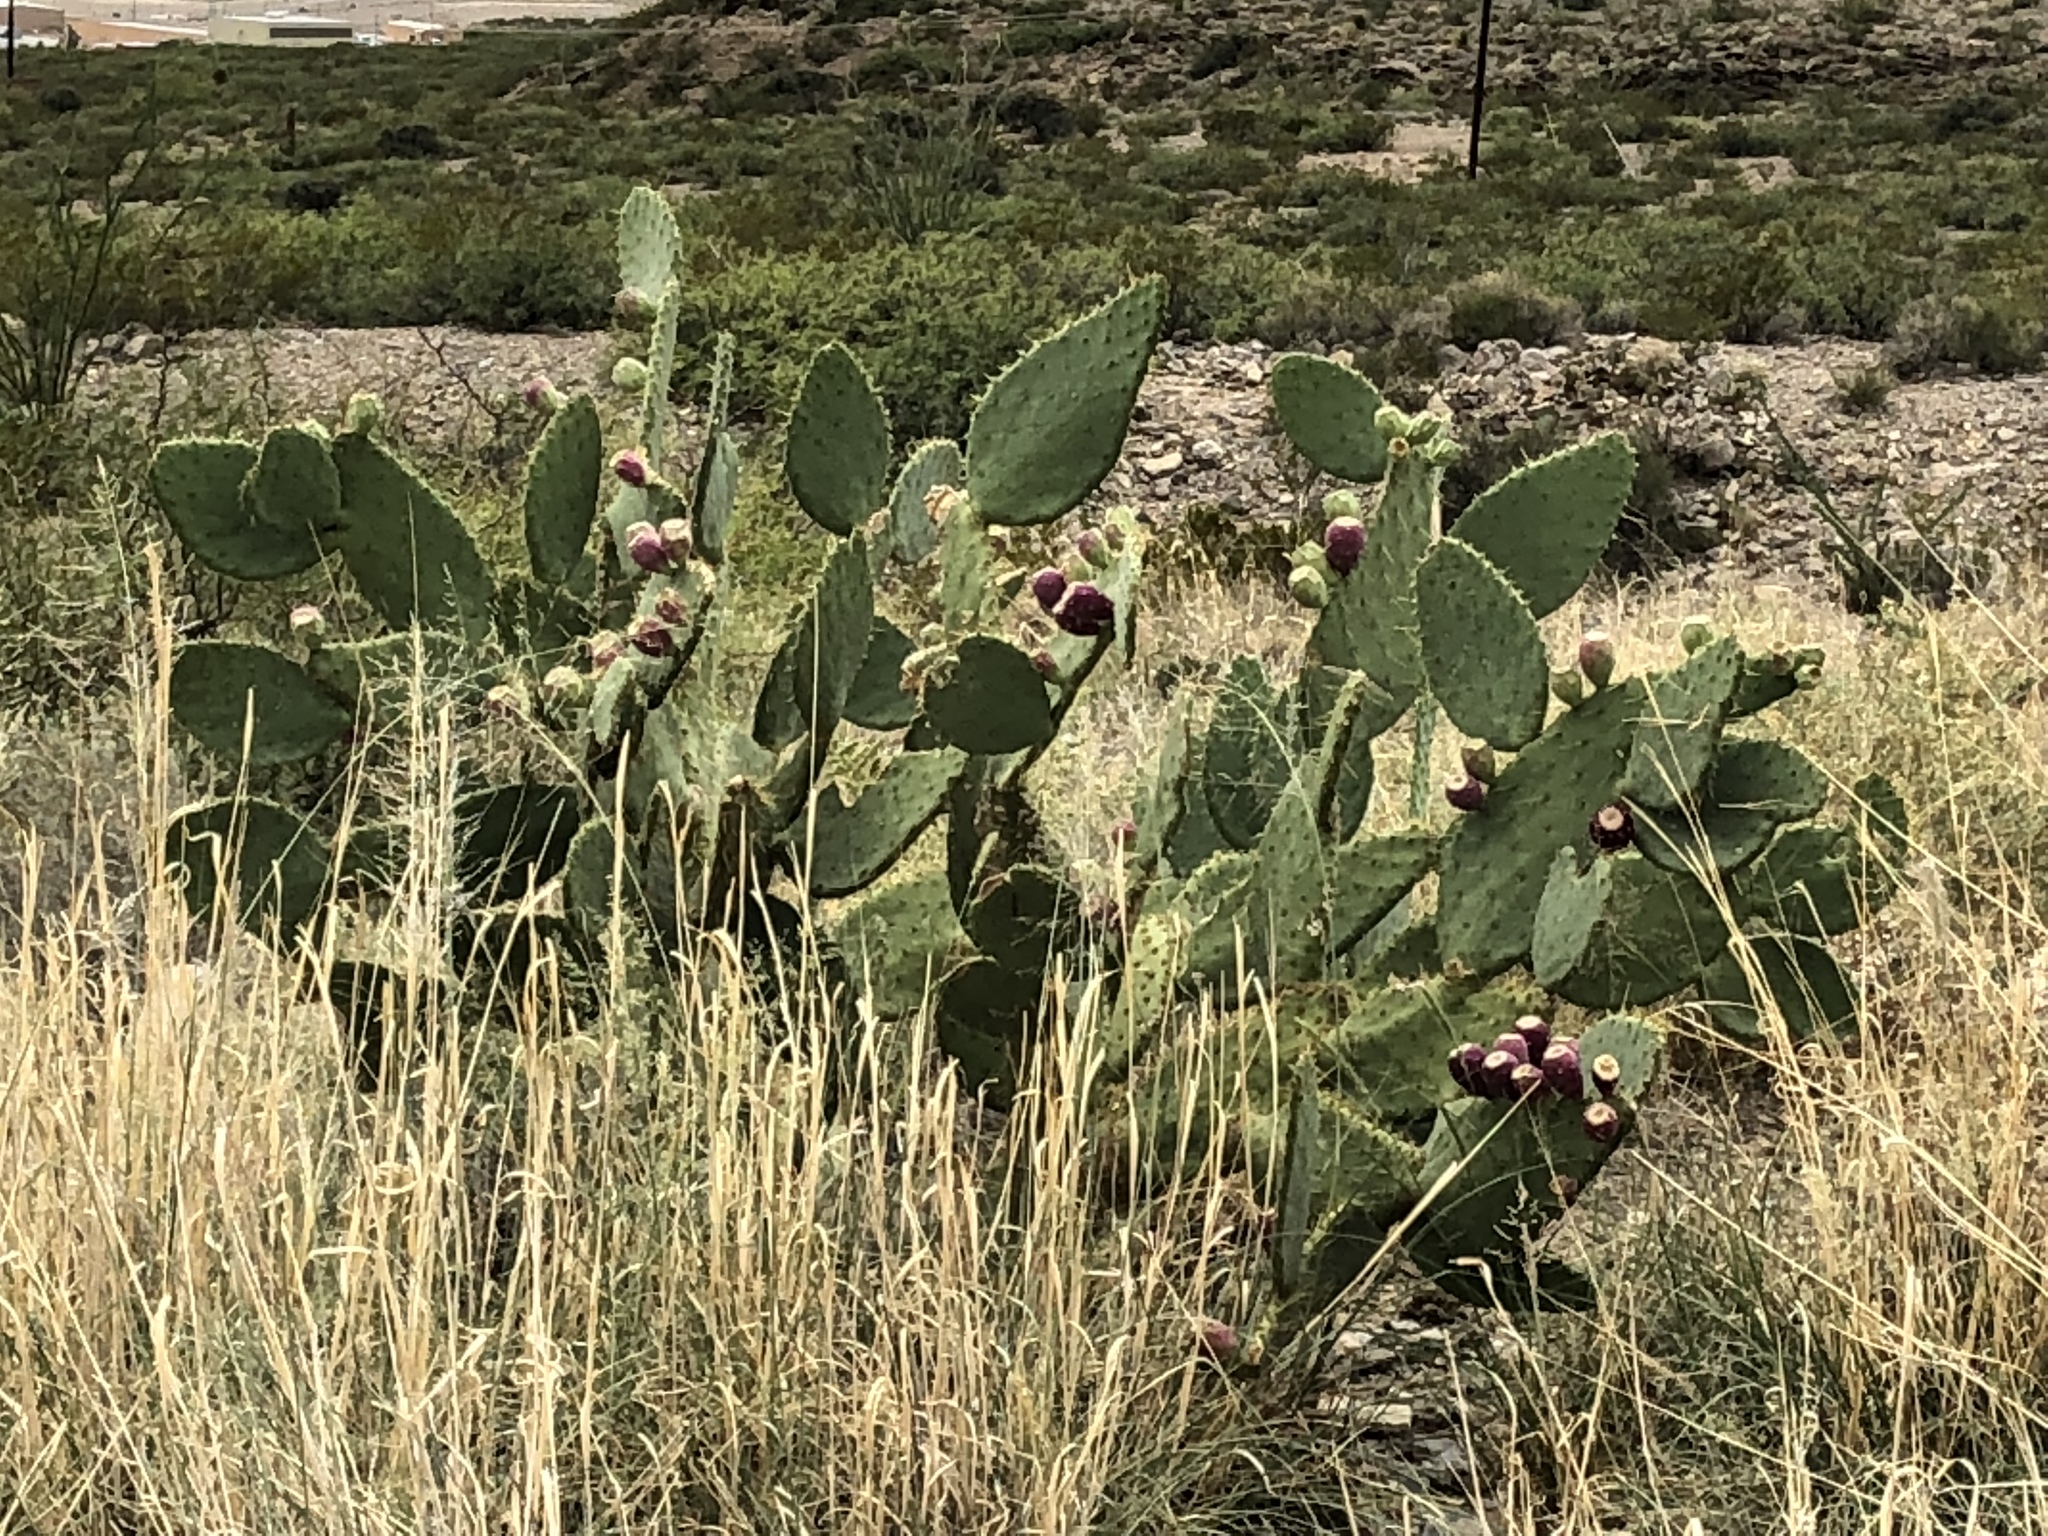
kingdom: Plantae
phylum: Tracheophyta
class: Magnoliopsida
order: Caryophyllales
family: Cactaceae
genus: Opuntia
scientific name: Opuntia engelmannii
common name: Cactus-apple
